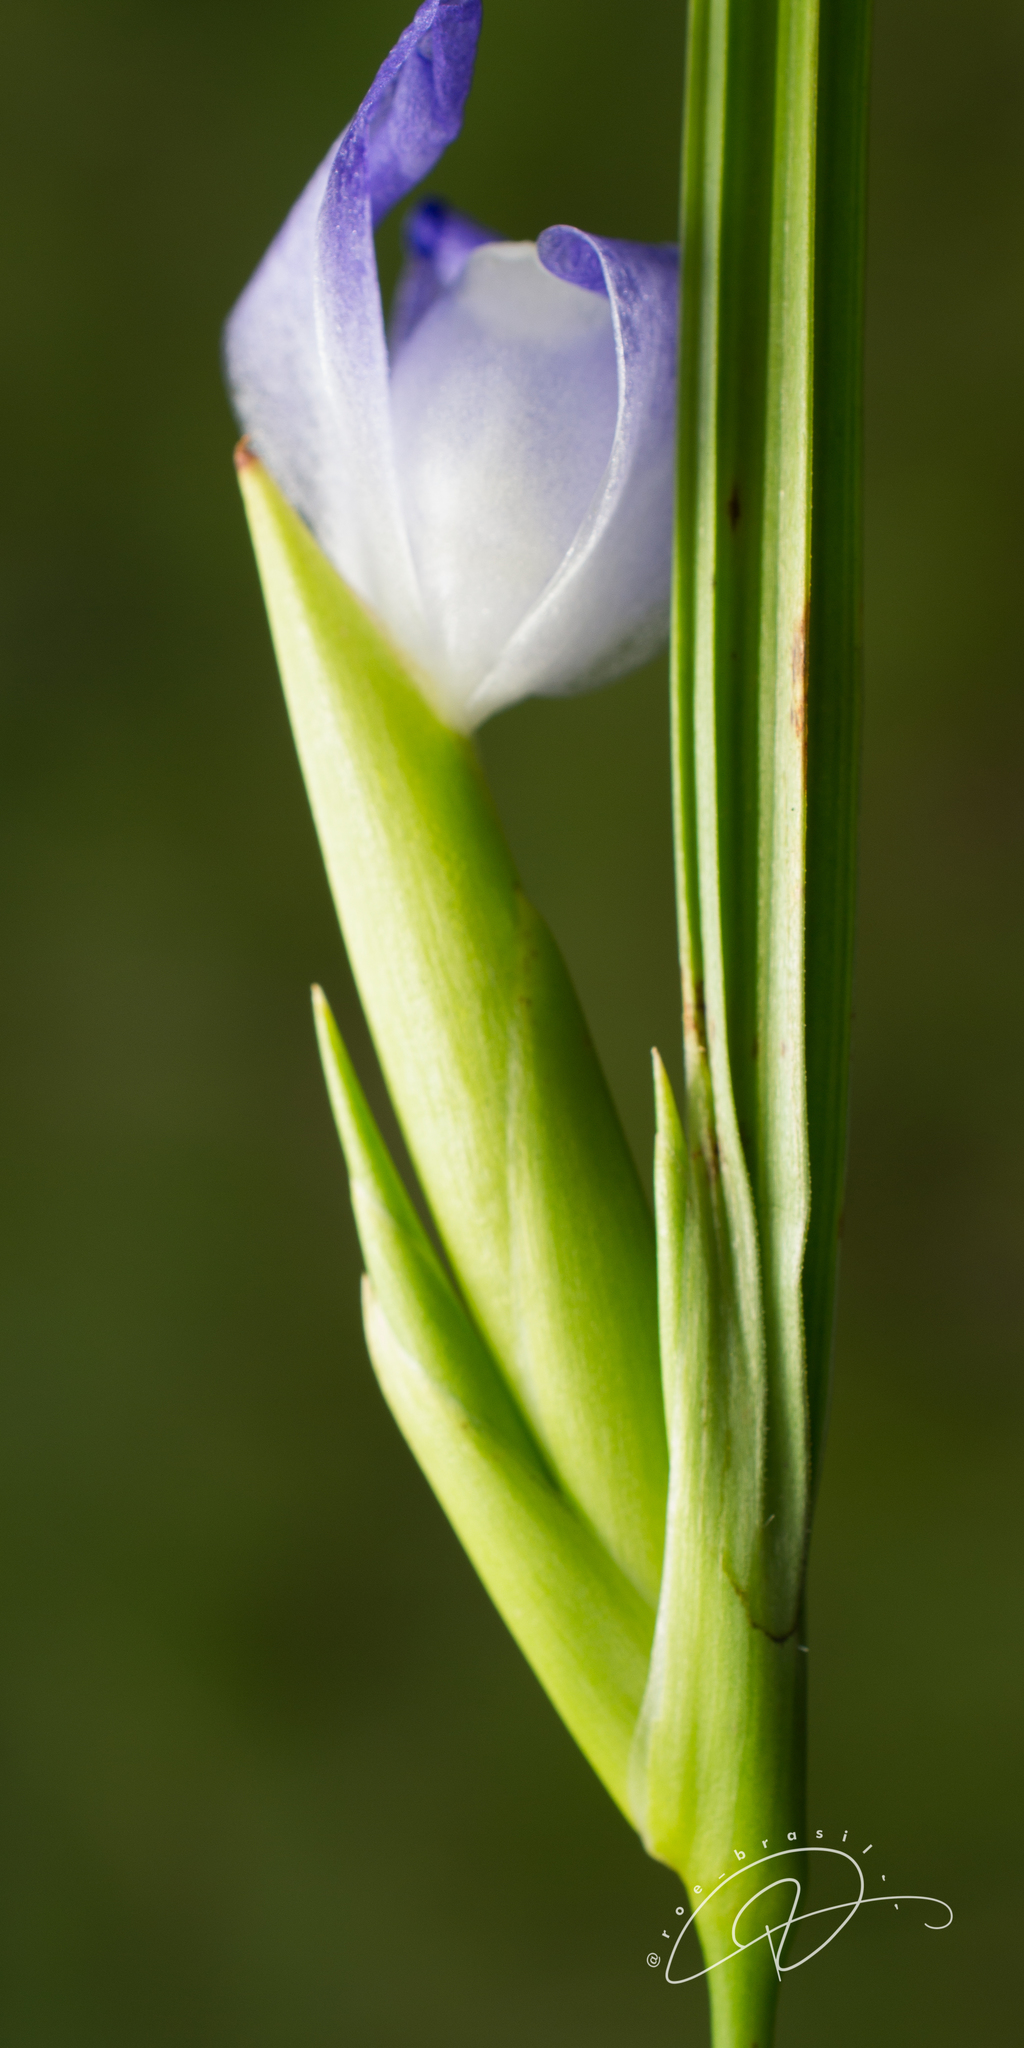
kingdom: Plantae
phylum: Tracheophyta
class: Liliopsida
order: Asparagales
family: Iridaceae
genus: Cipura
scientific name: Cipura paludosa
